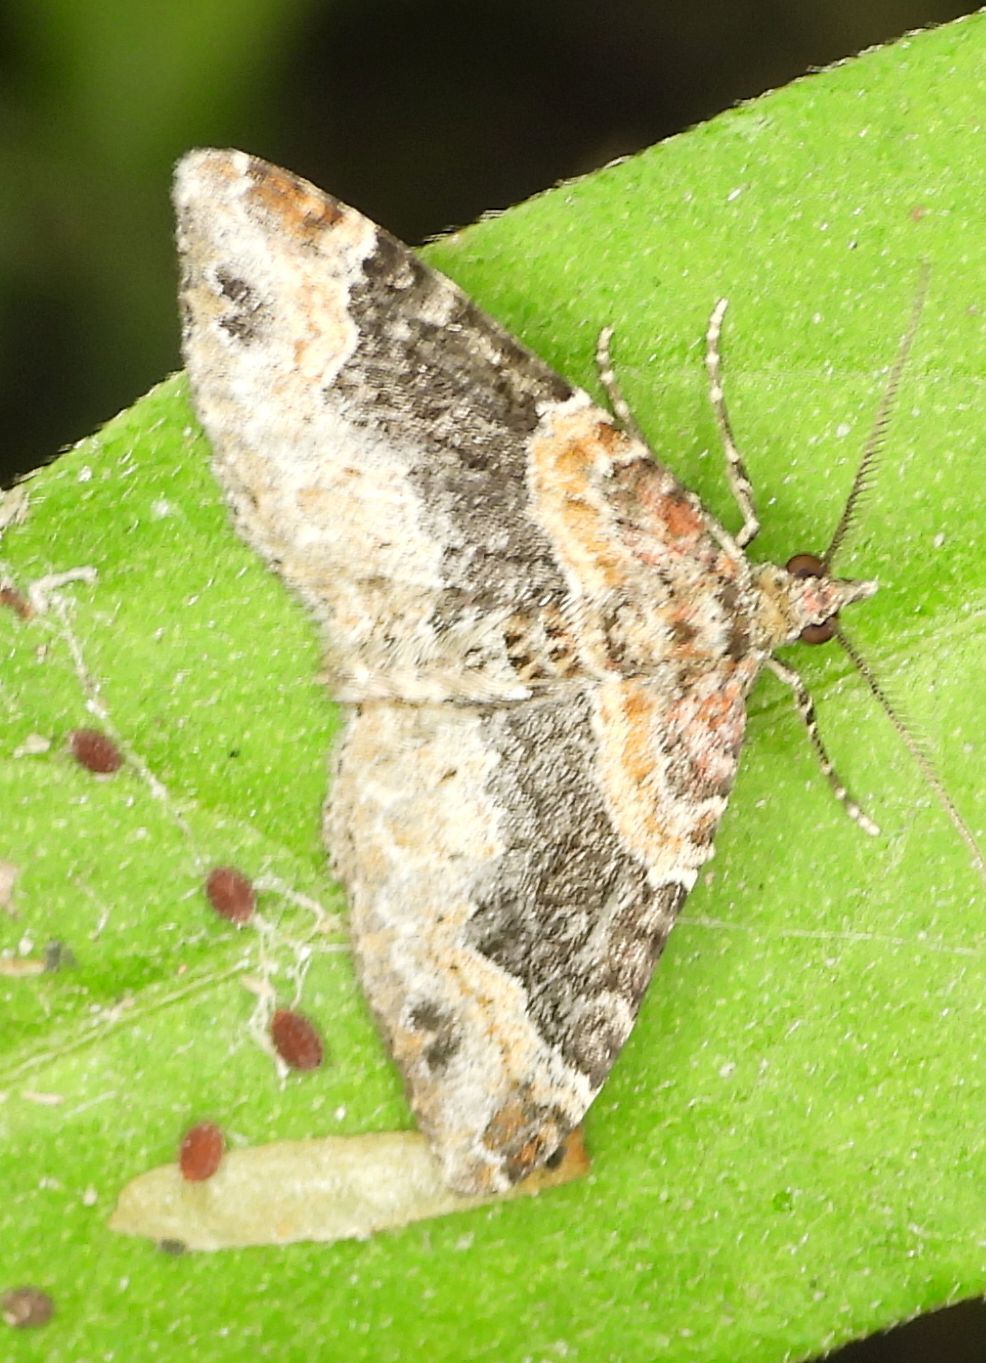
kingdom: Animalia
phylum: Arthropoda
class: Insecta
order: Lepidoptera
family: Geometridae
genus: Xanthorhoe
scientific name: Xanthorhoe ferrugata
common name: Dark-barred twin-spot carpet
